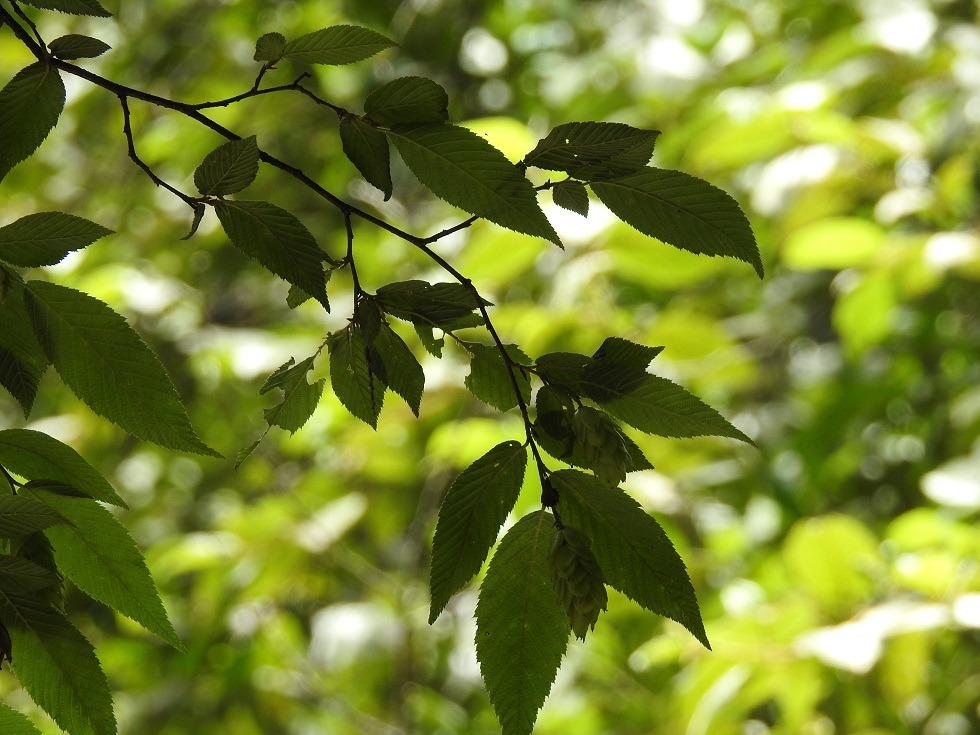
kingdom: Plantae
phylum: Tracheophyta
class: Magnoliopsida
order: Fagales
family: Betulaceae
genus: Ostrya
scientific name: Ostrya virginiana
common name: Ironwood
